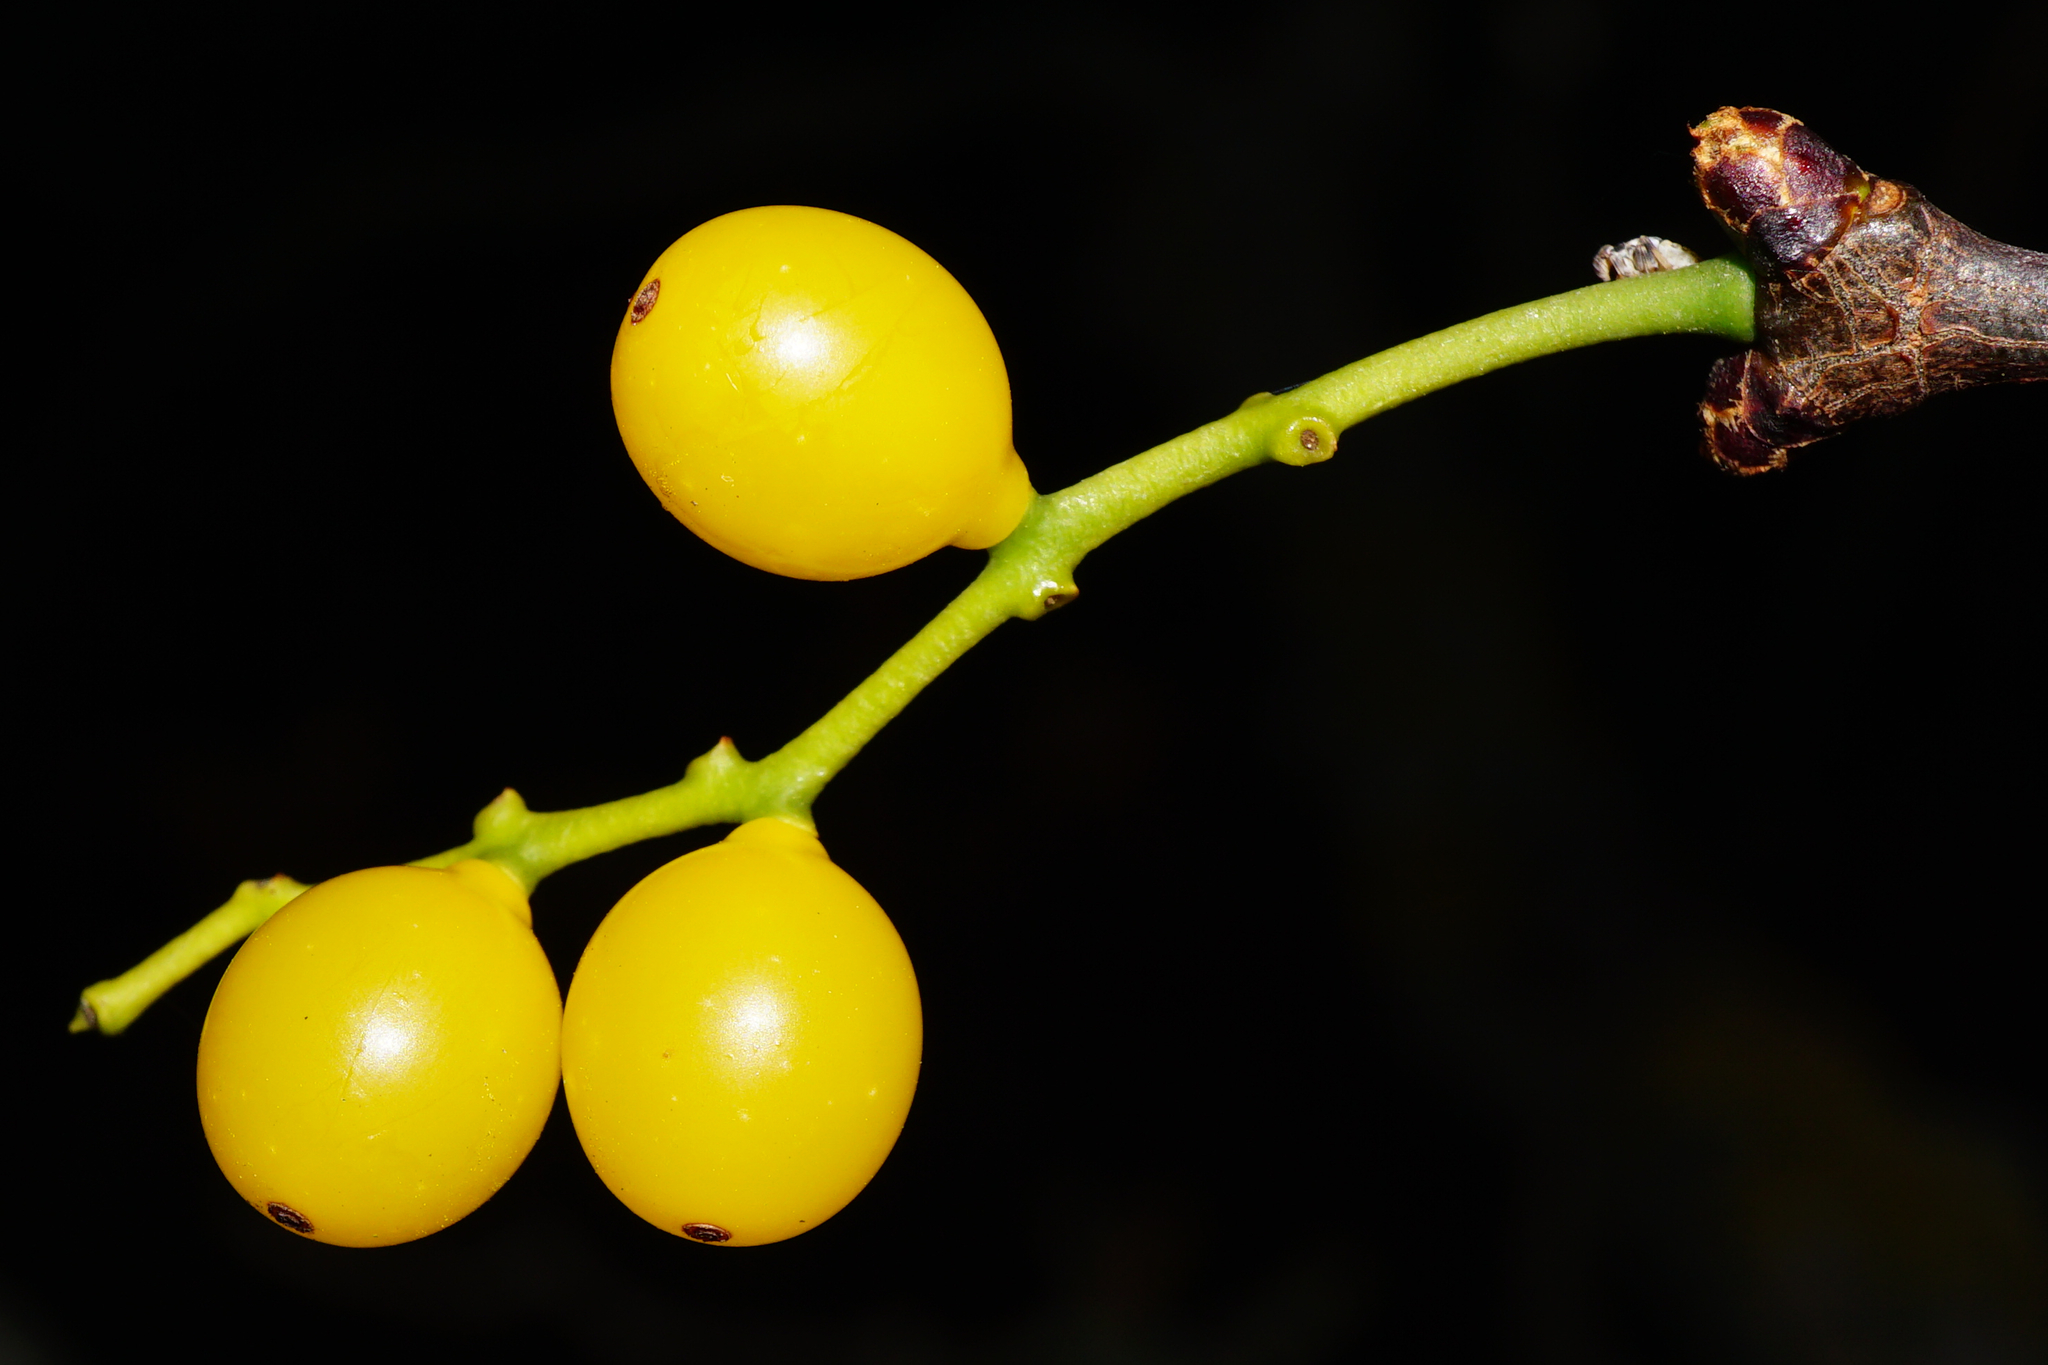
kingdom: Plantae
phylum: Tracheophyta
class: Magnoliopsida
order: Santalales
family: Loranthaceae
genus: Loranthus
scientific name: Loranthus europaeus
